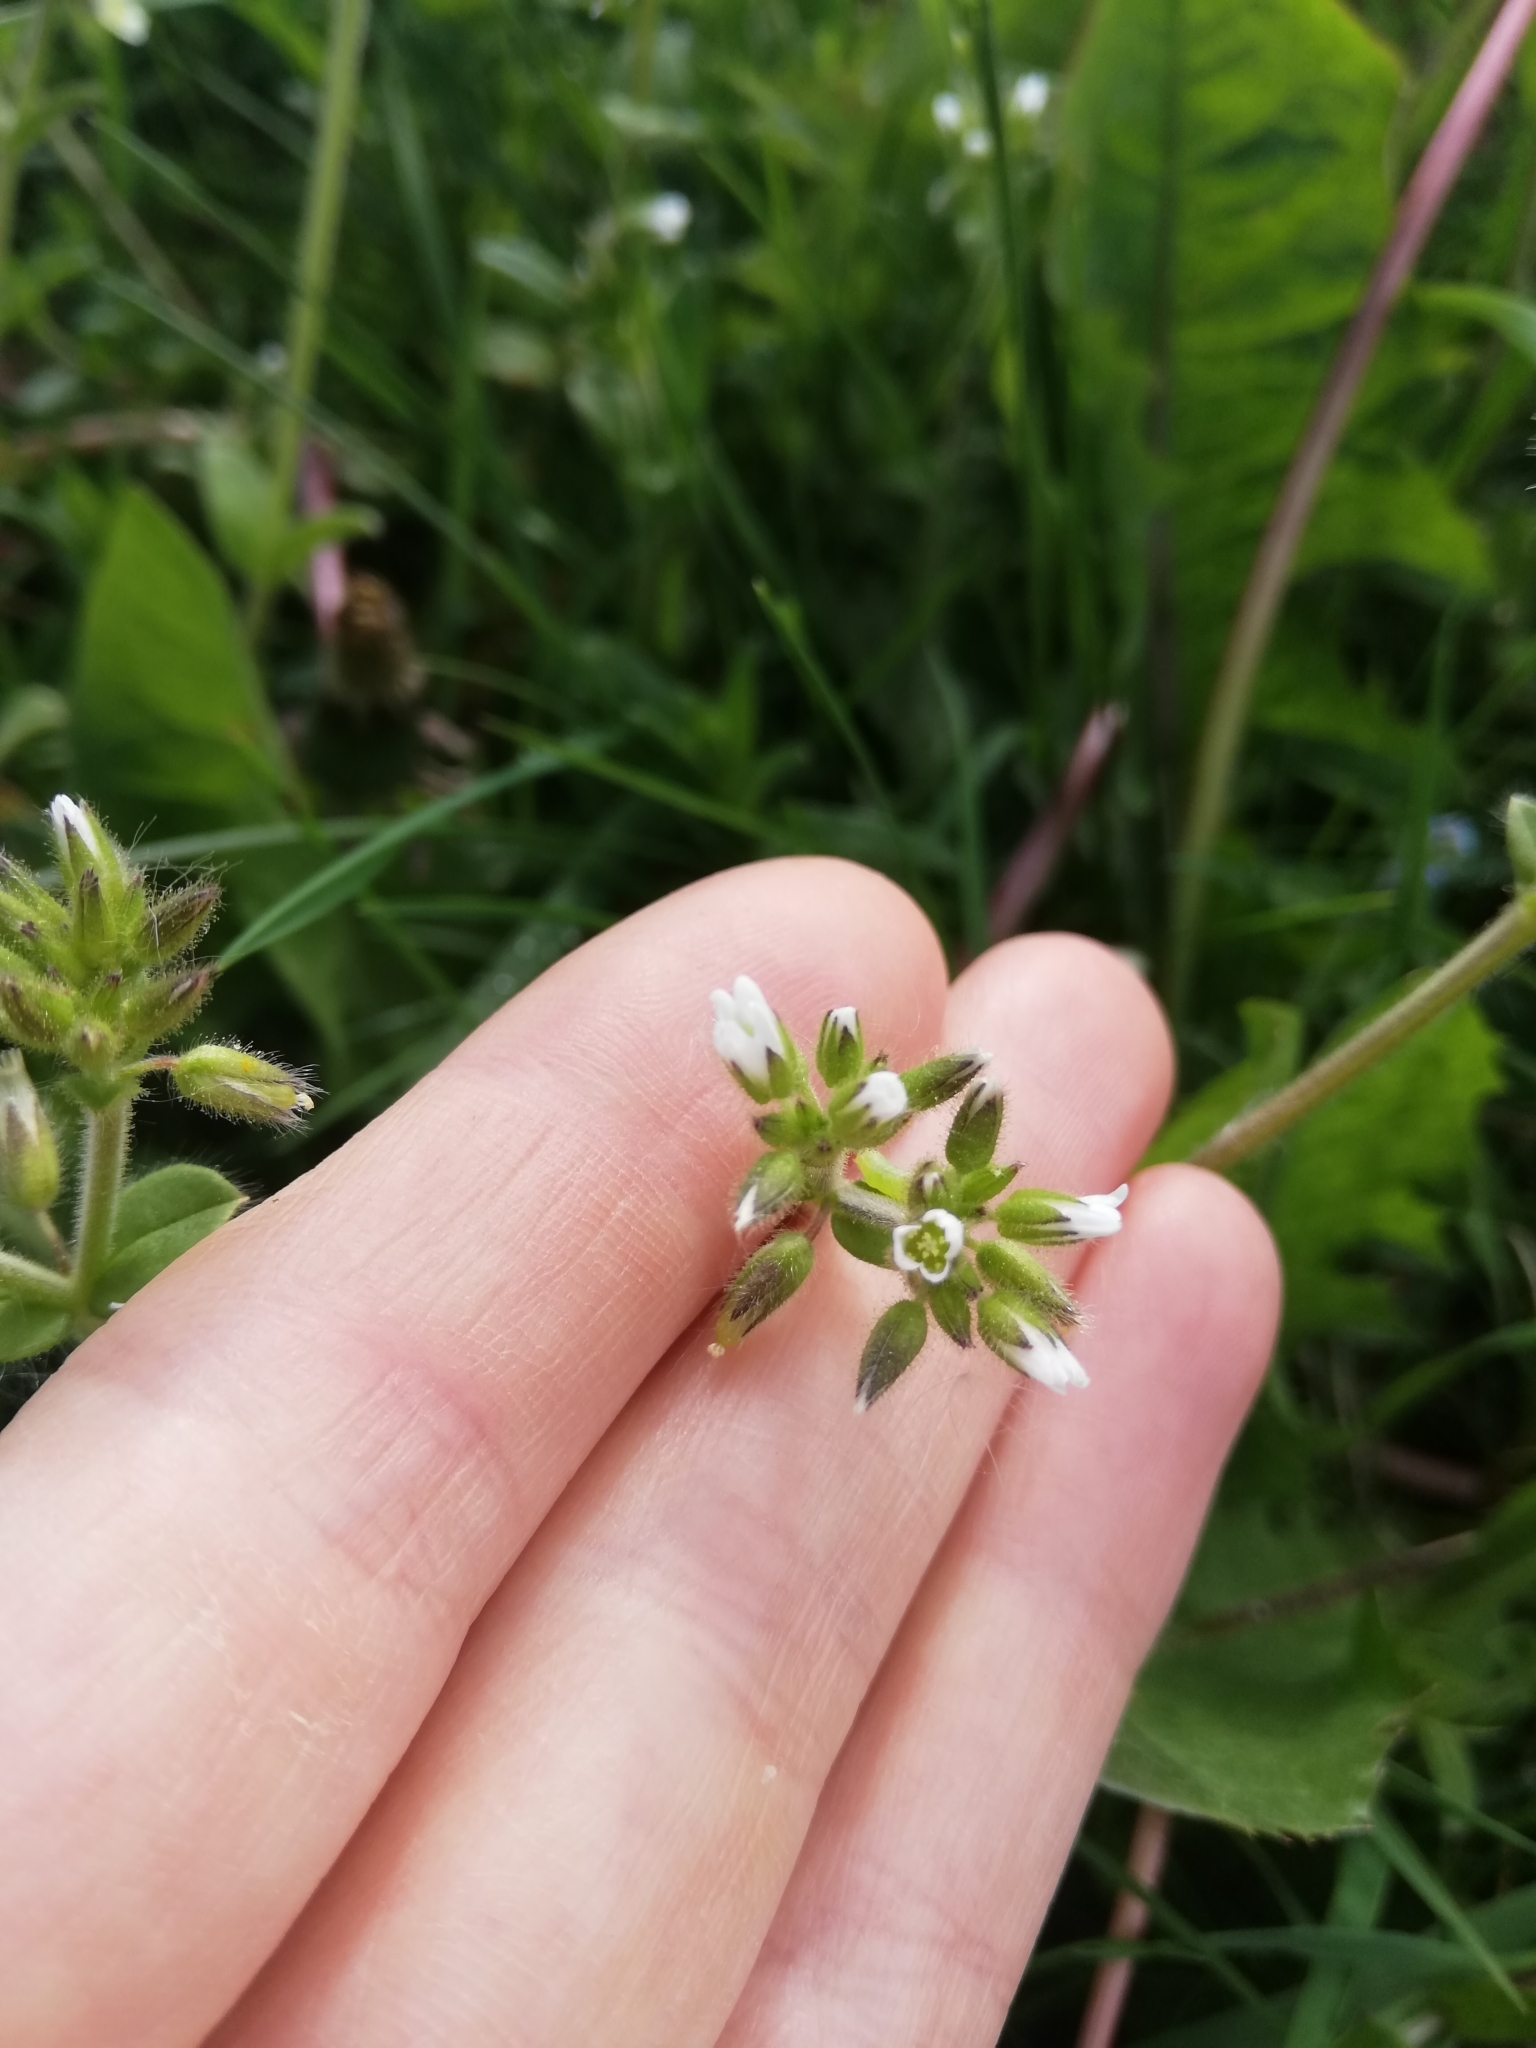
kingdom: Plantae
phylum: Tracheophyta
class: Magnoliopsida
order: Caryophyllales
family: Caryophyllaceae
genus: Cerastium
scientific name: Cerastium glomeratum
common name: Sticky chickweed
